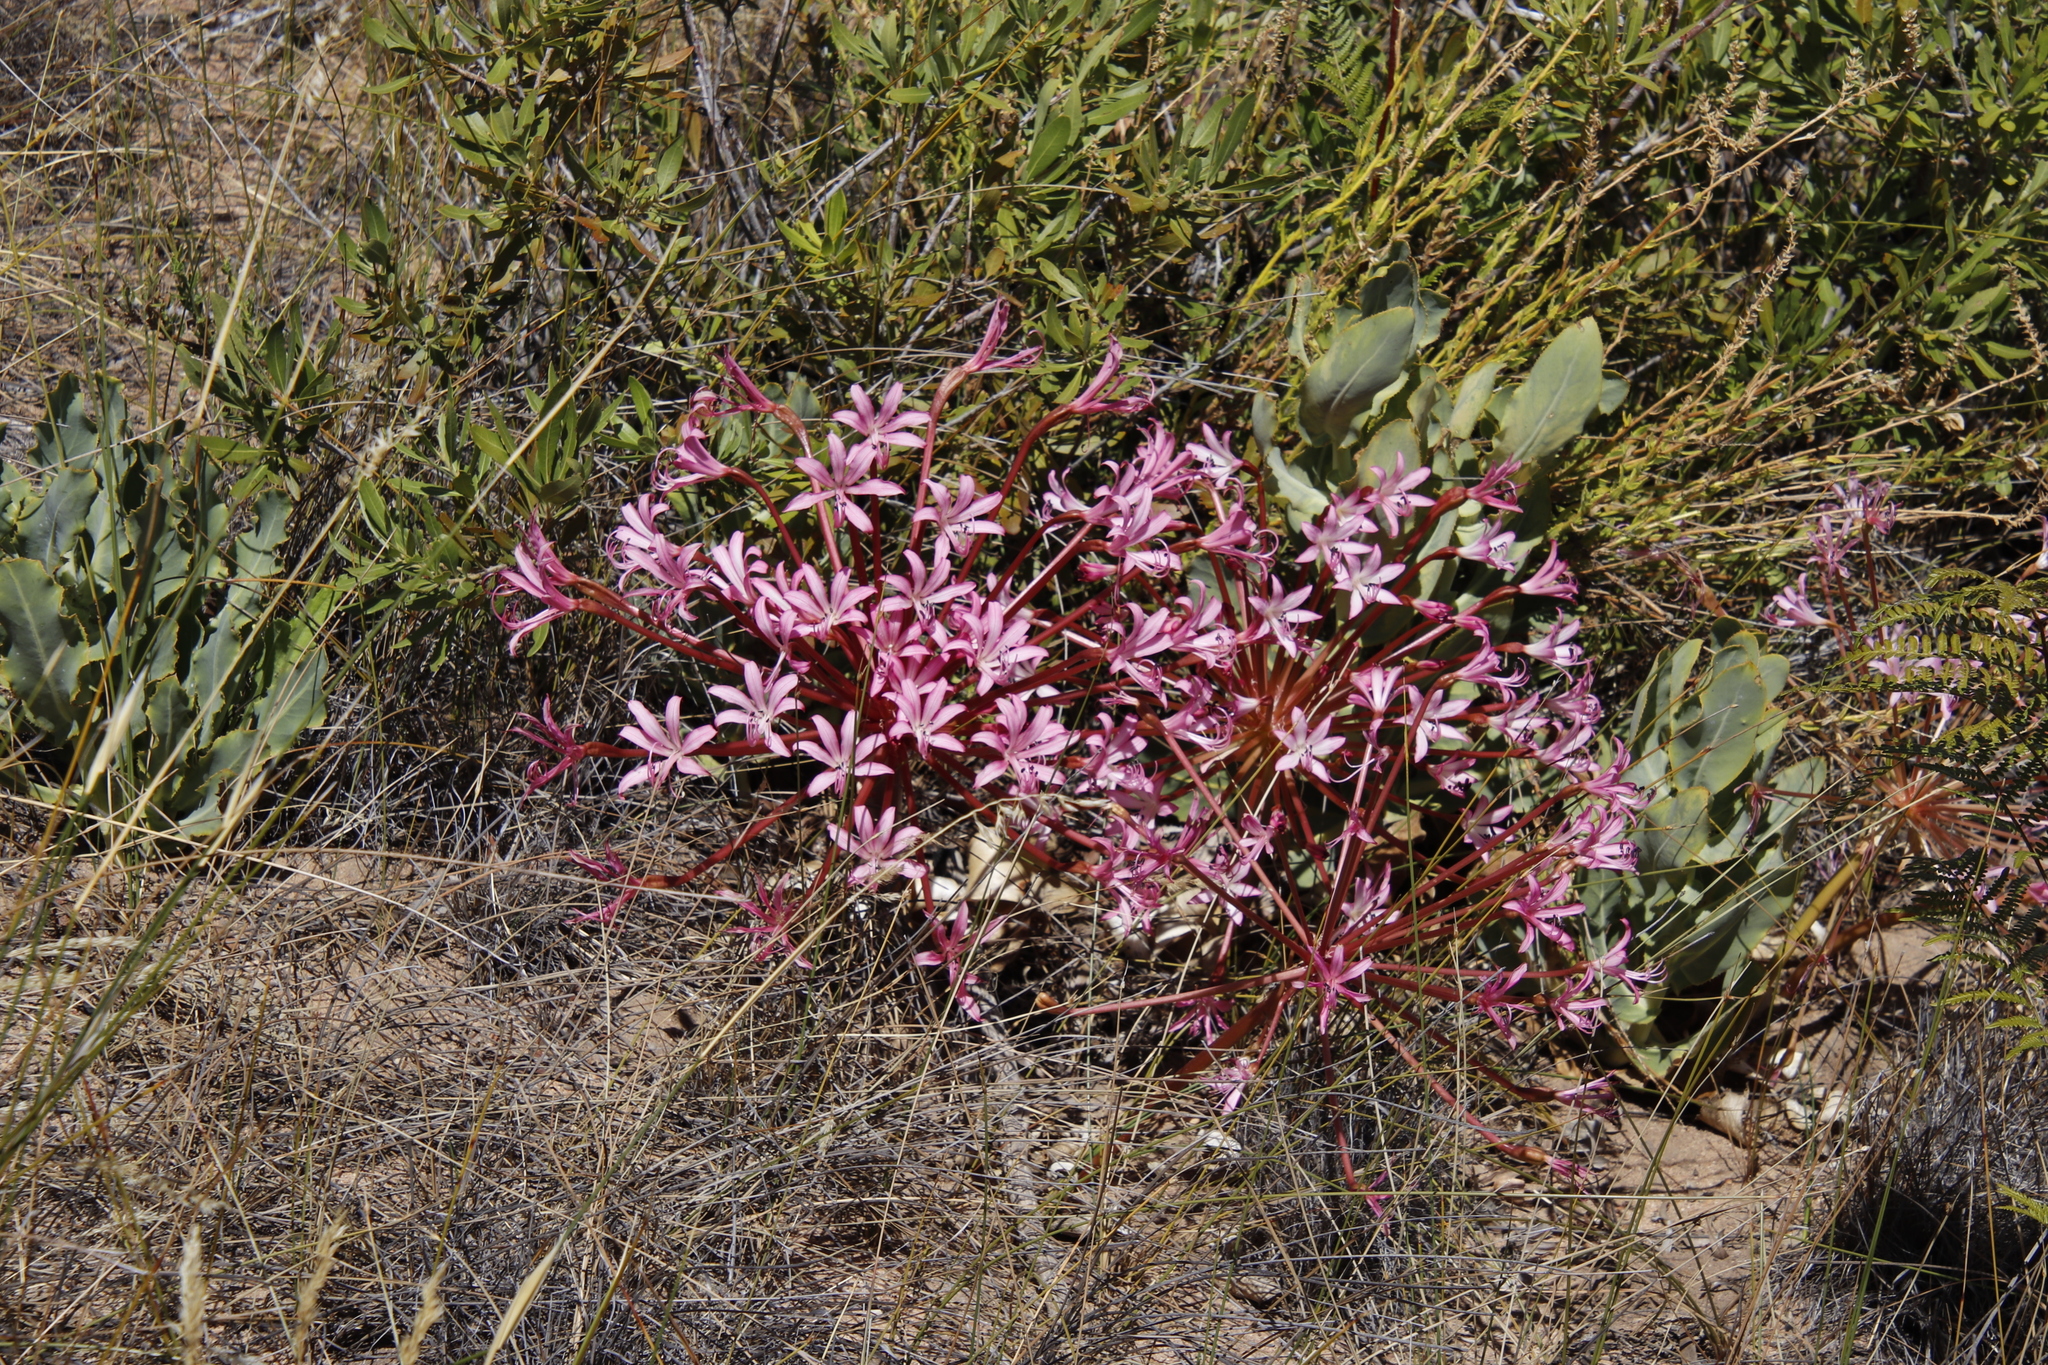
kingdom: Plantae
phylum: Tracheophyta
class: Liliopsida
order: Asparagales
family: Amaryllidaceae
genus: Brunsvigia
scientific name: Brunsvigia nervosa
